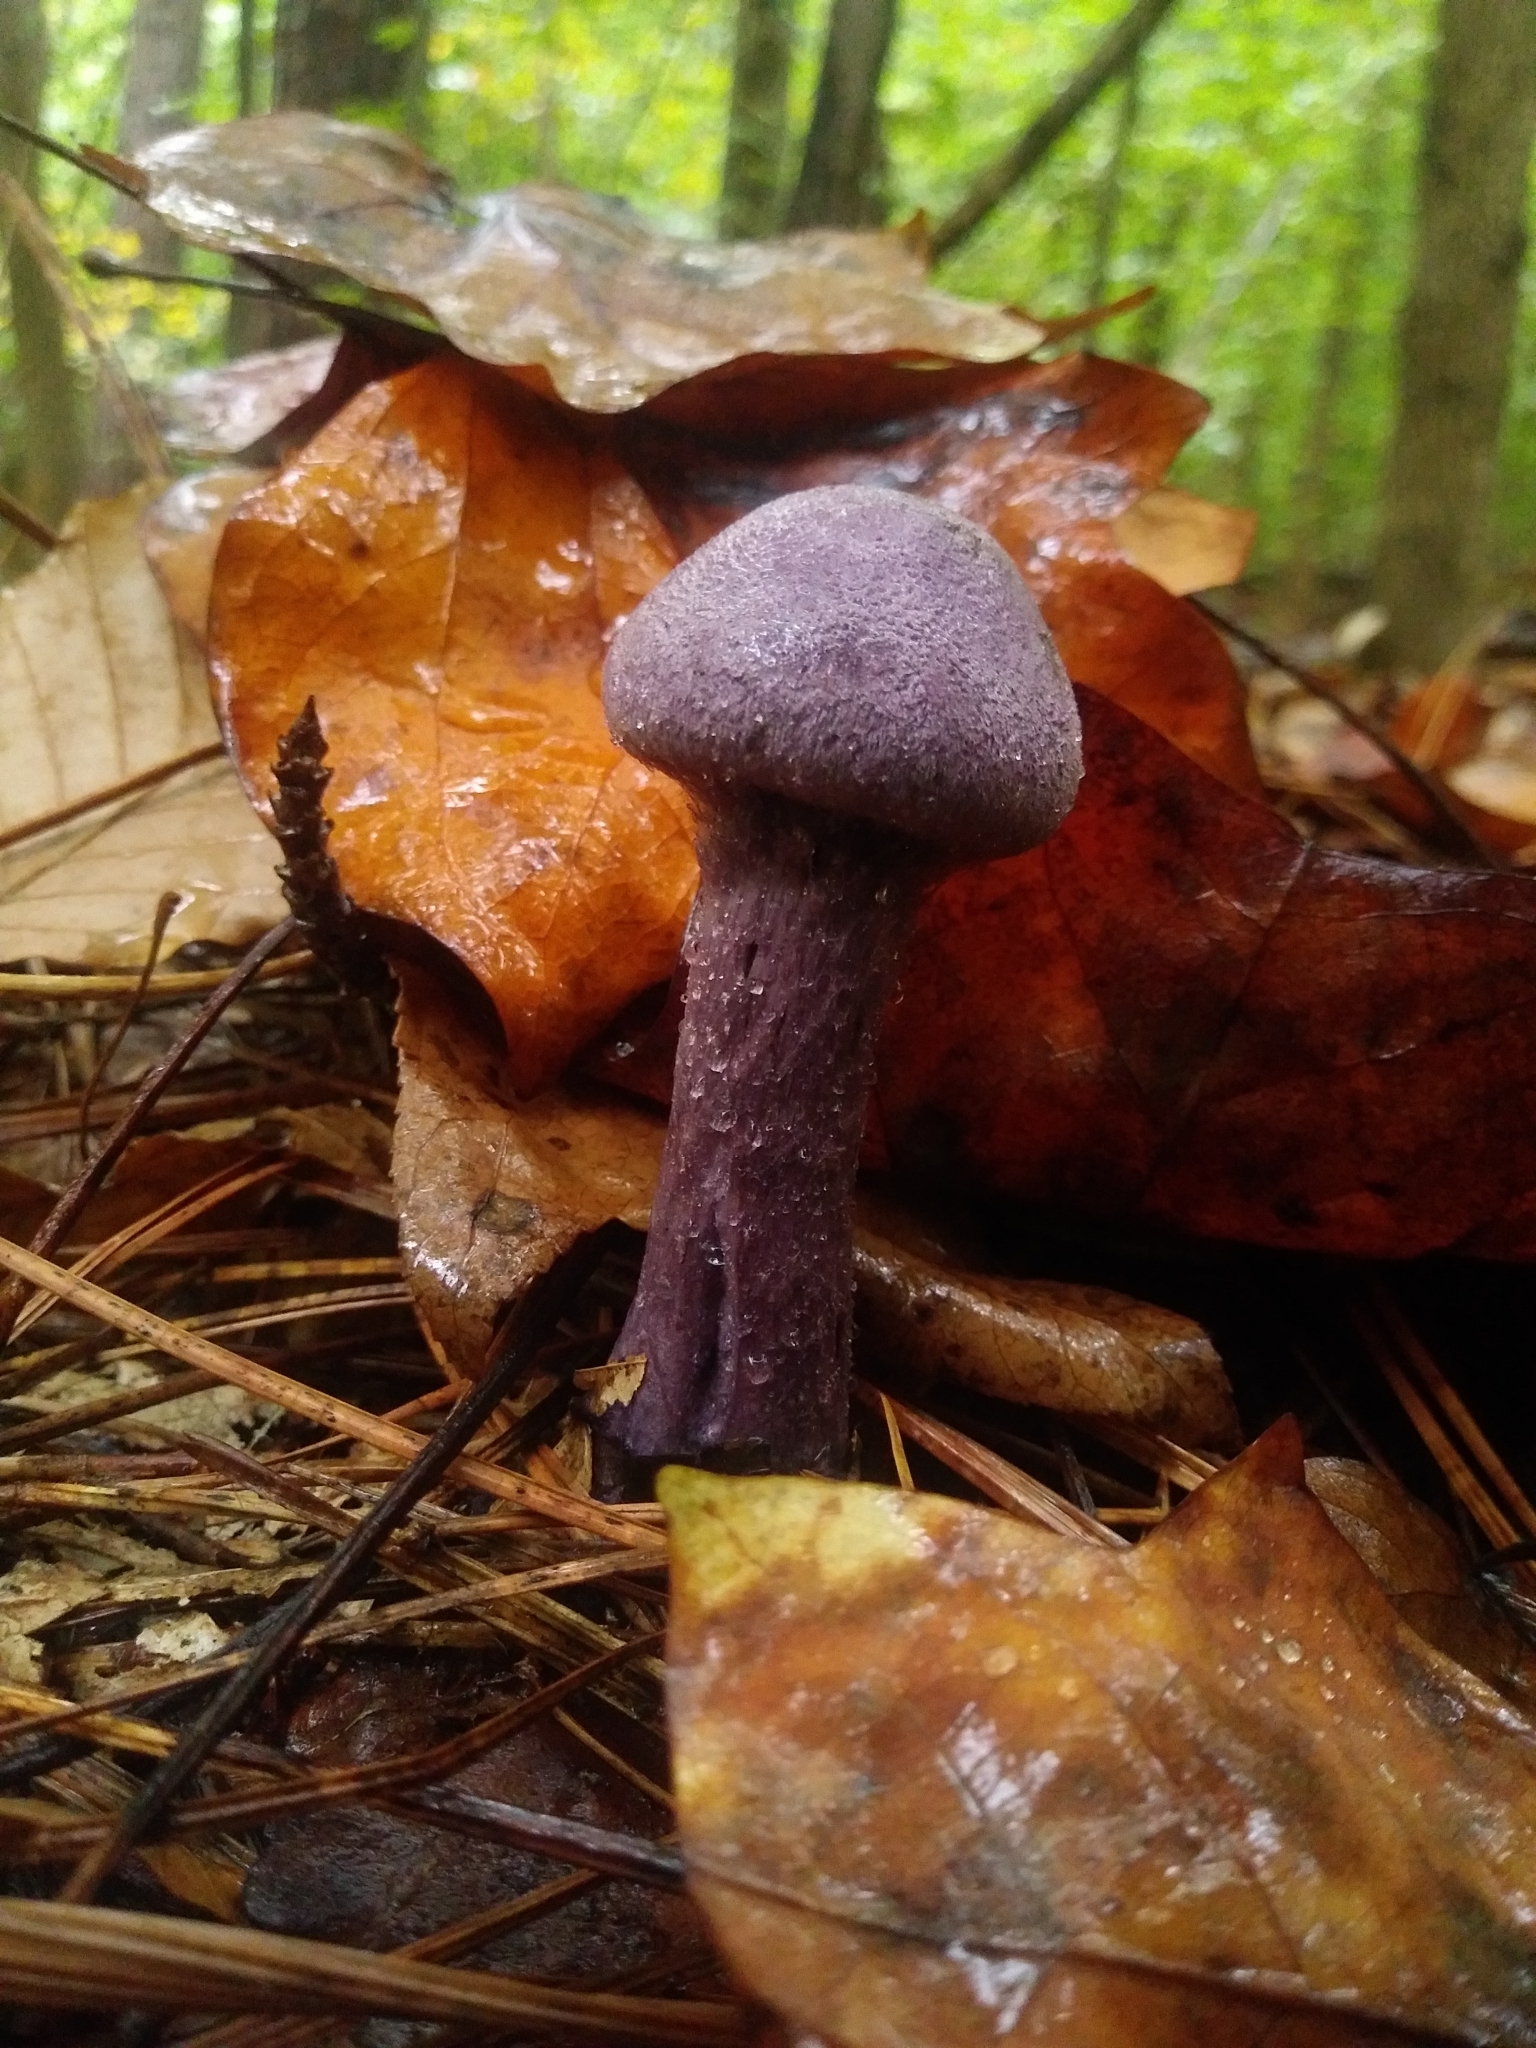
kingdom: Fungi
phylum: Basidiomycota
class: Agaricomycetes
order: Agaricales
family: Cortinariaceae
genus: Cortinarius
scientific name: Cortinarius violaceus
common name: Violet webcap
